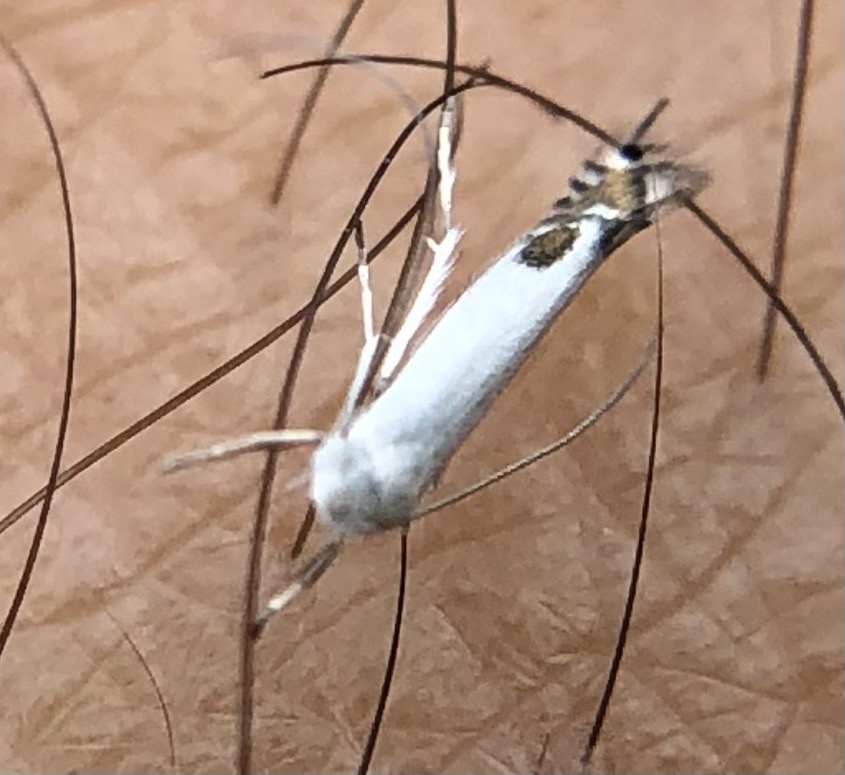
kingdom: Animalia
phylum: Arthropoda
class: Insecta
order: Lepidoptera
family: Lyonetiidae
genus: Lyonetia
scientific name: Lyonetia clerkella
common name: Apple leaf miner
